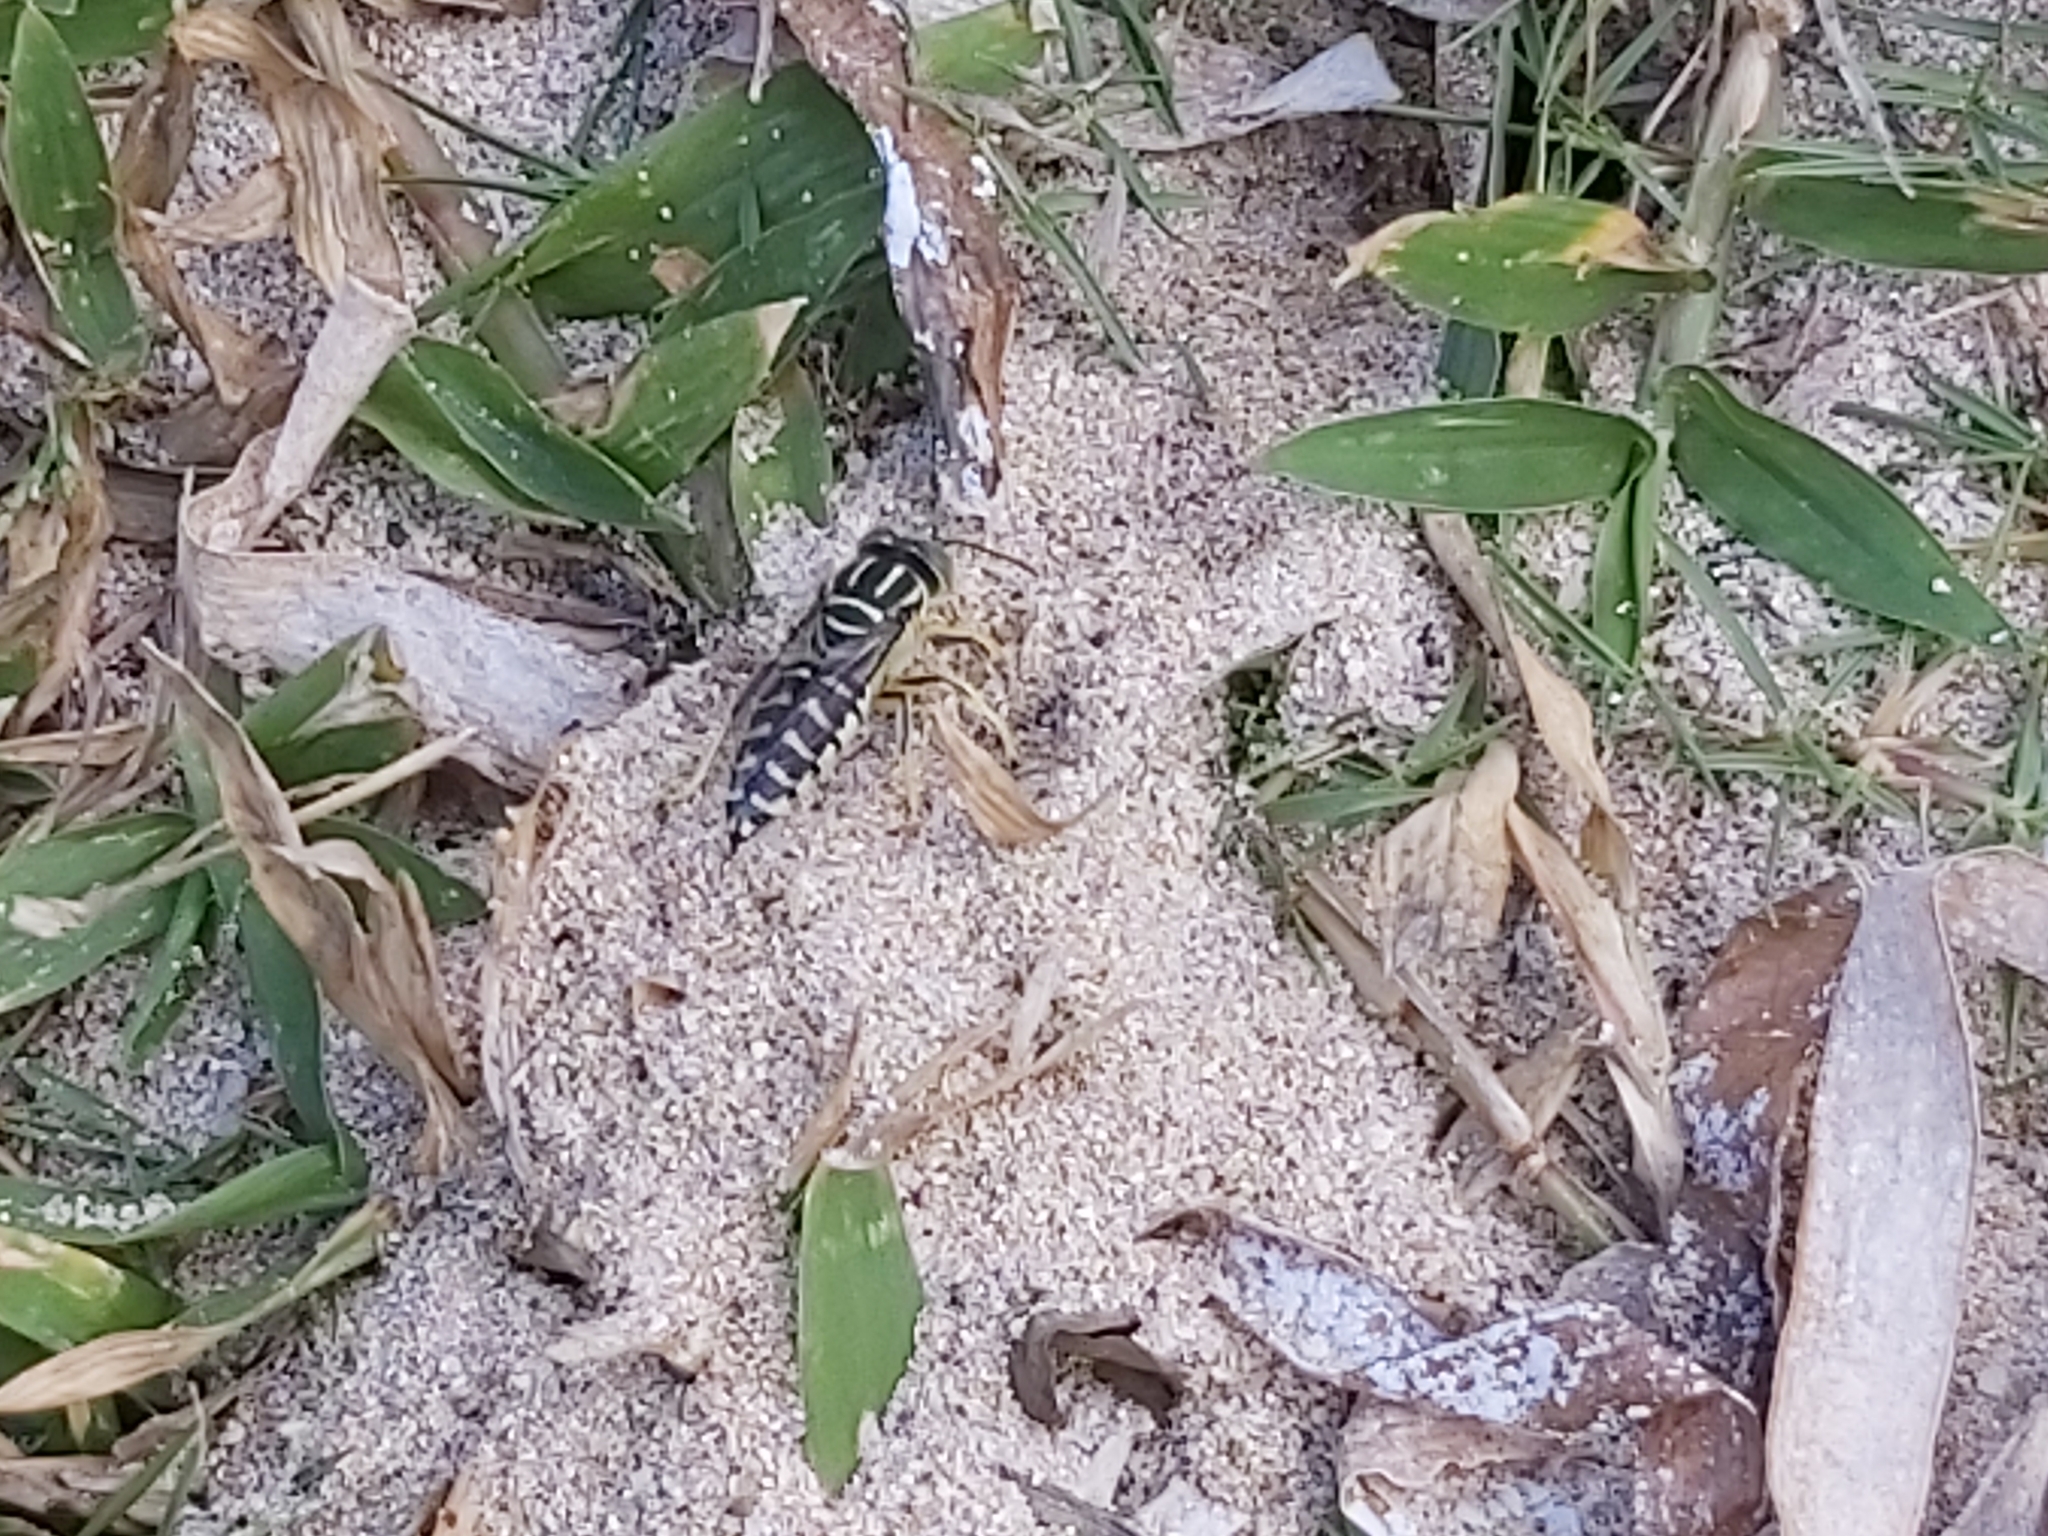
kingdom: Animalia
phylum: Arthropoda
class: Insecta
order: Hymenoptera
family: Crabronidae
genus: Stictia
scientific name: Stictia signata
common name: Sand wasp
